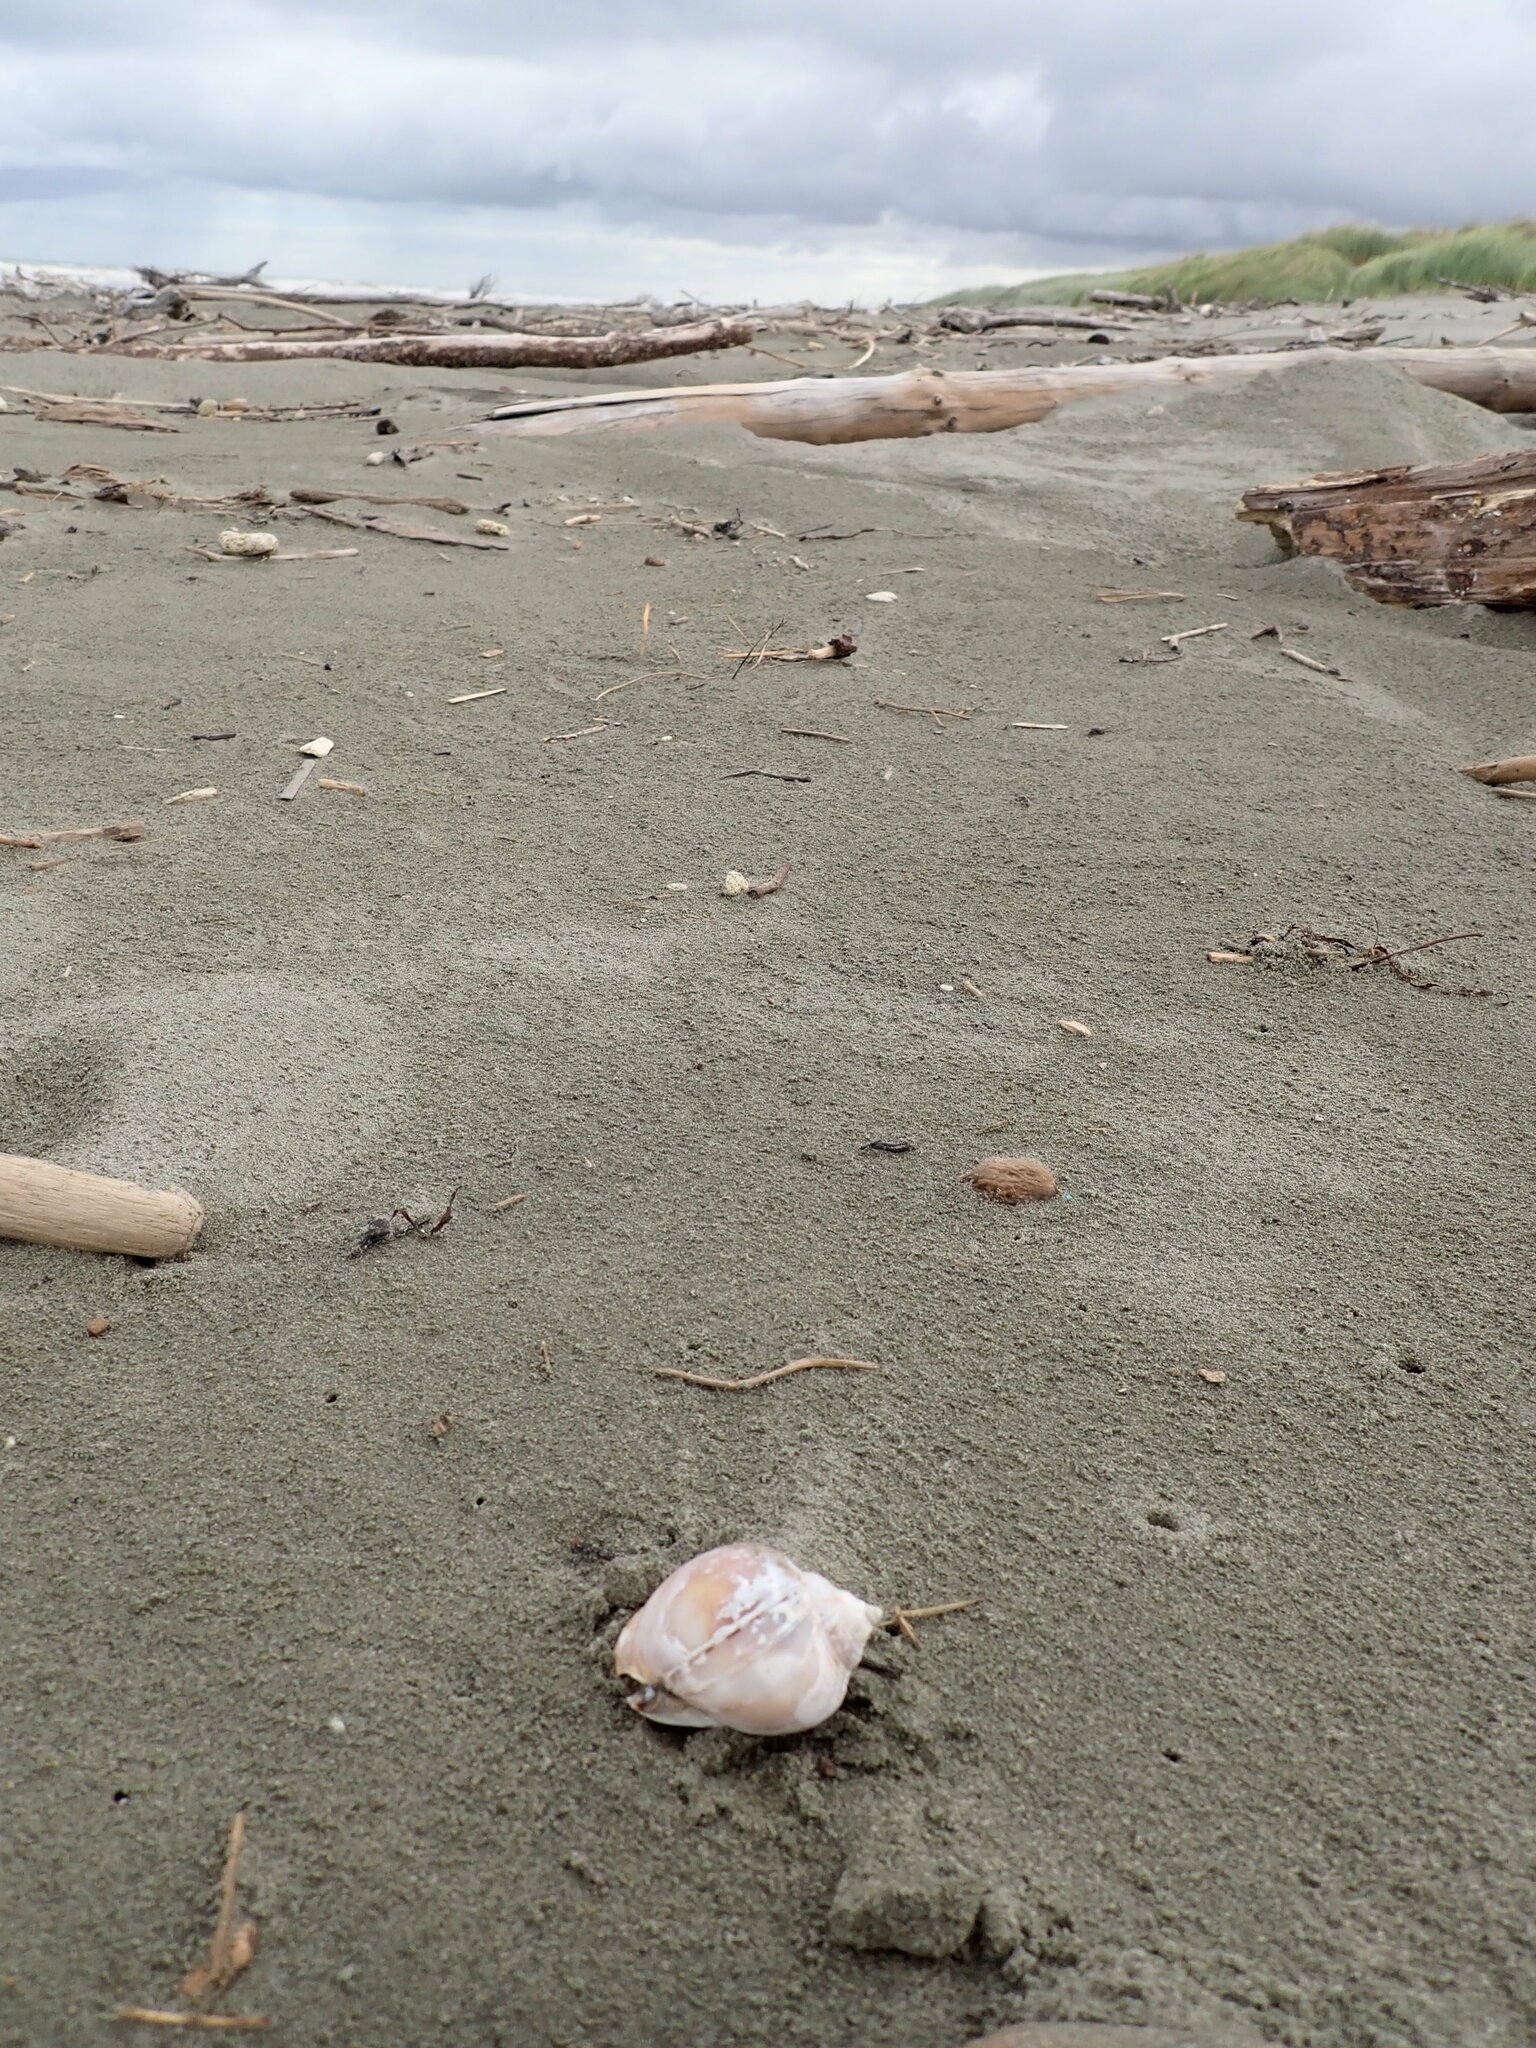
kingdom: Animalia
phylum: Mollusca
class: Gastropoda
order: Littorinimorpha
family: Cassidae
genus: Semicassis
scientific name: Semicassis pyrum
